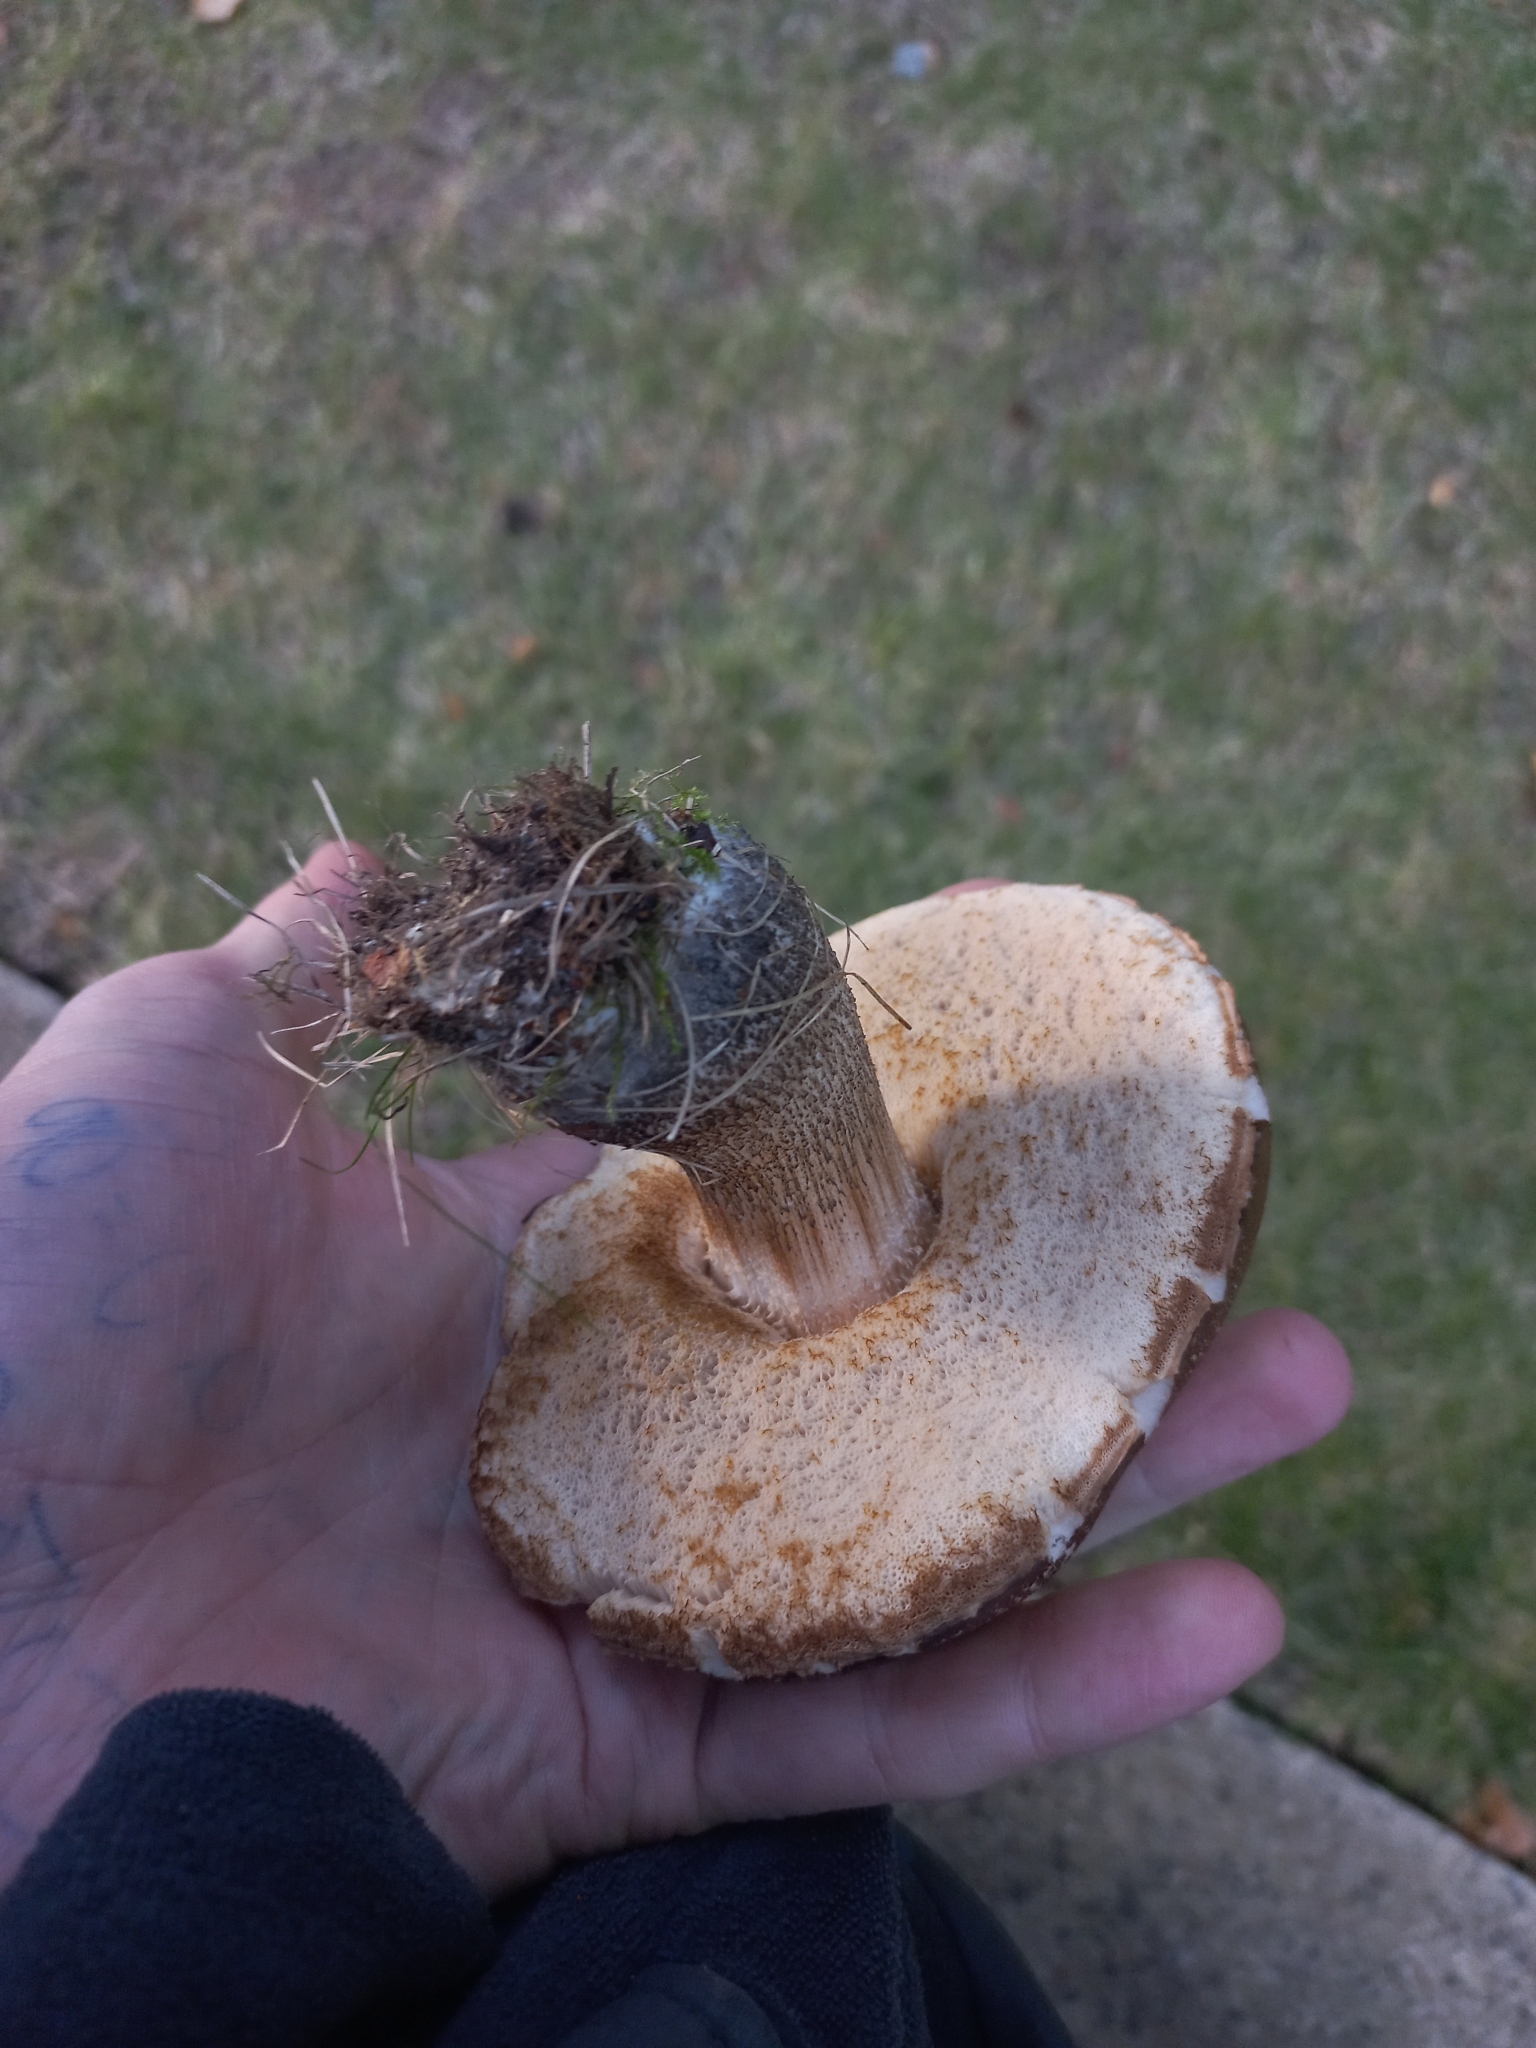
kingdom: Fungi
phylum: Basidiomycota
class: Agaricomycetes
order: Boletales
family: Boletaceae
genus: Leccinum
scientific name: Leccinum scabrum
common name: Blushing bolete
